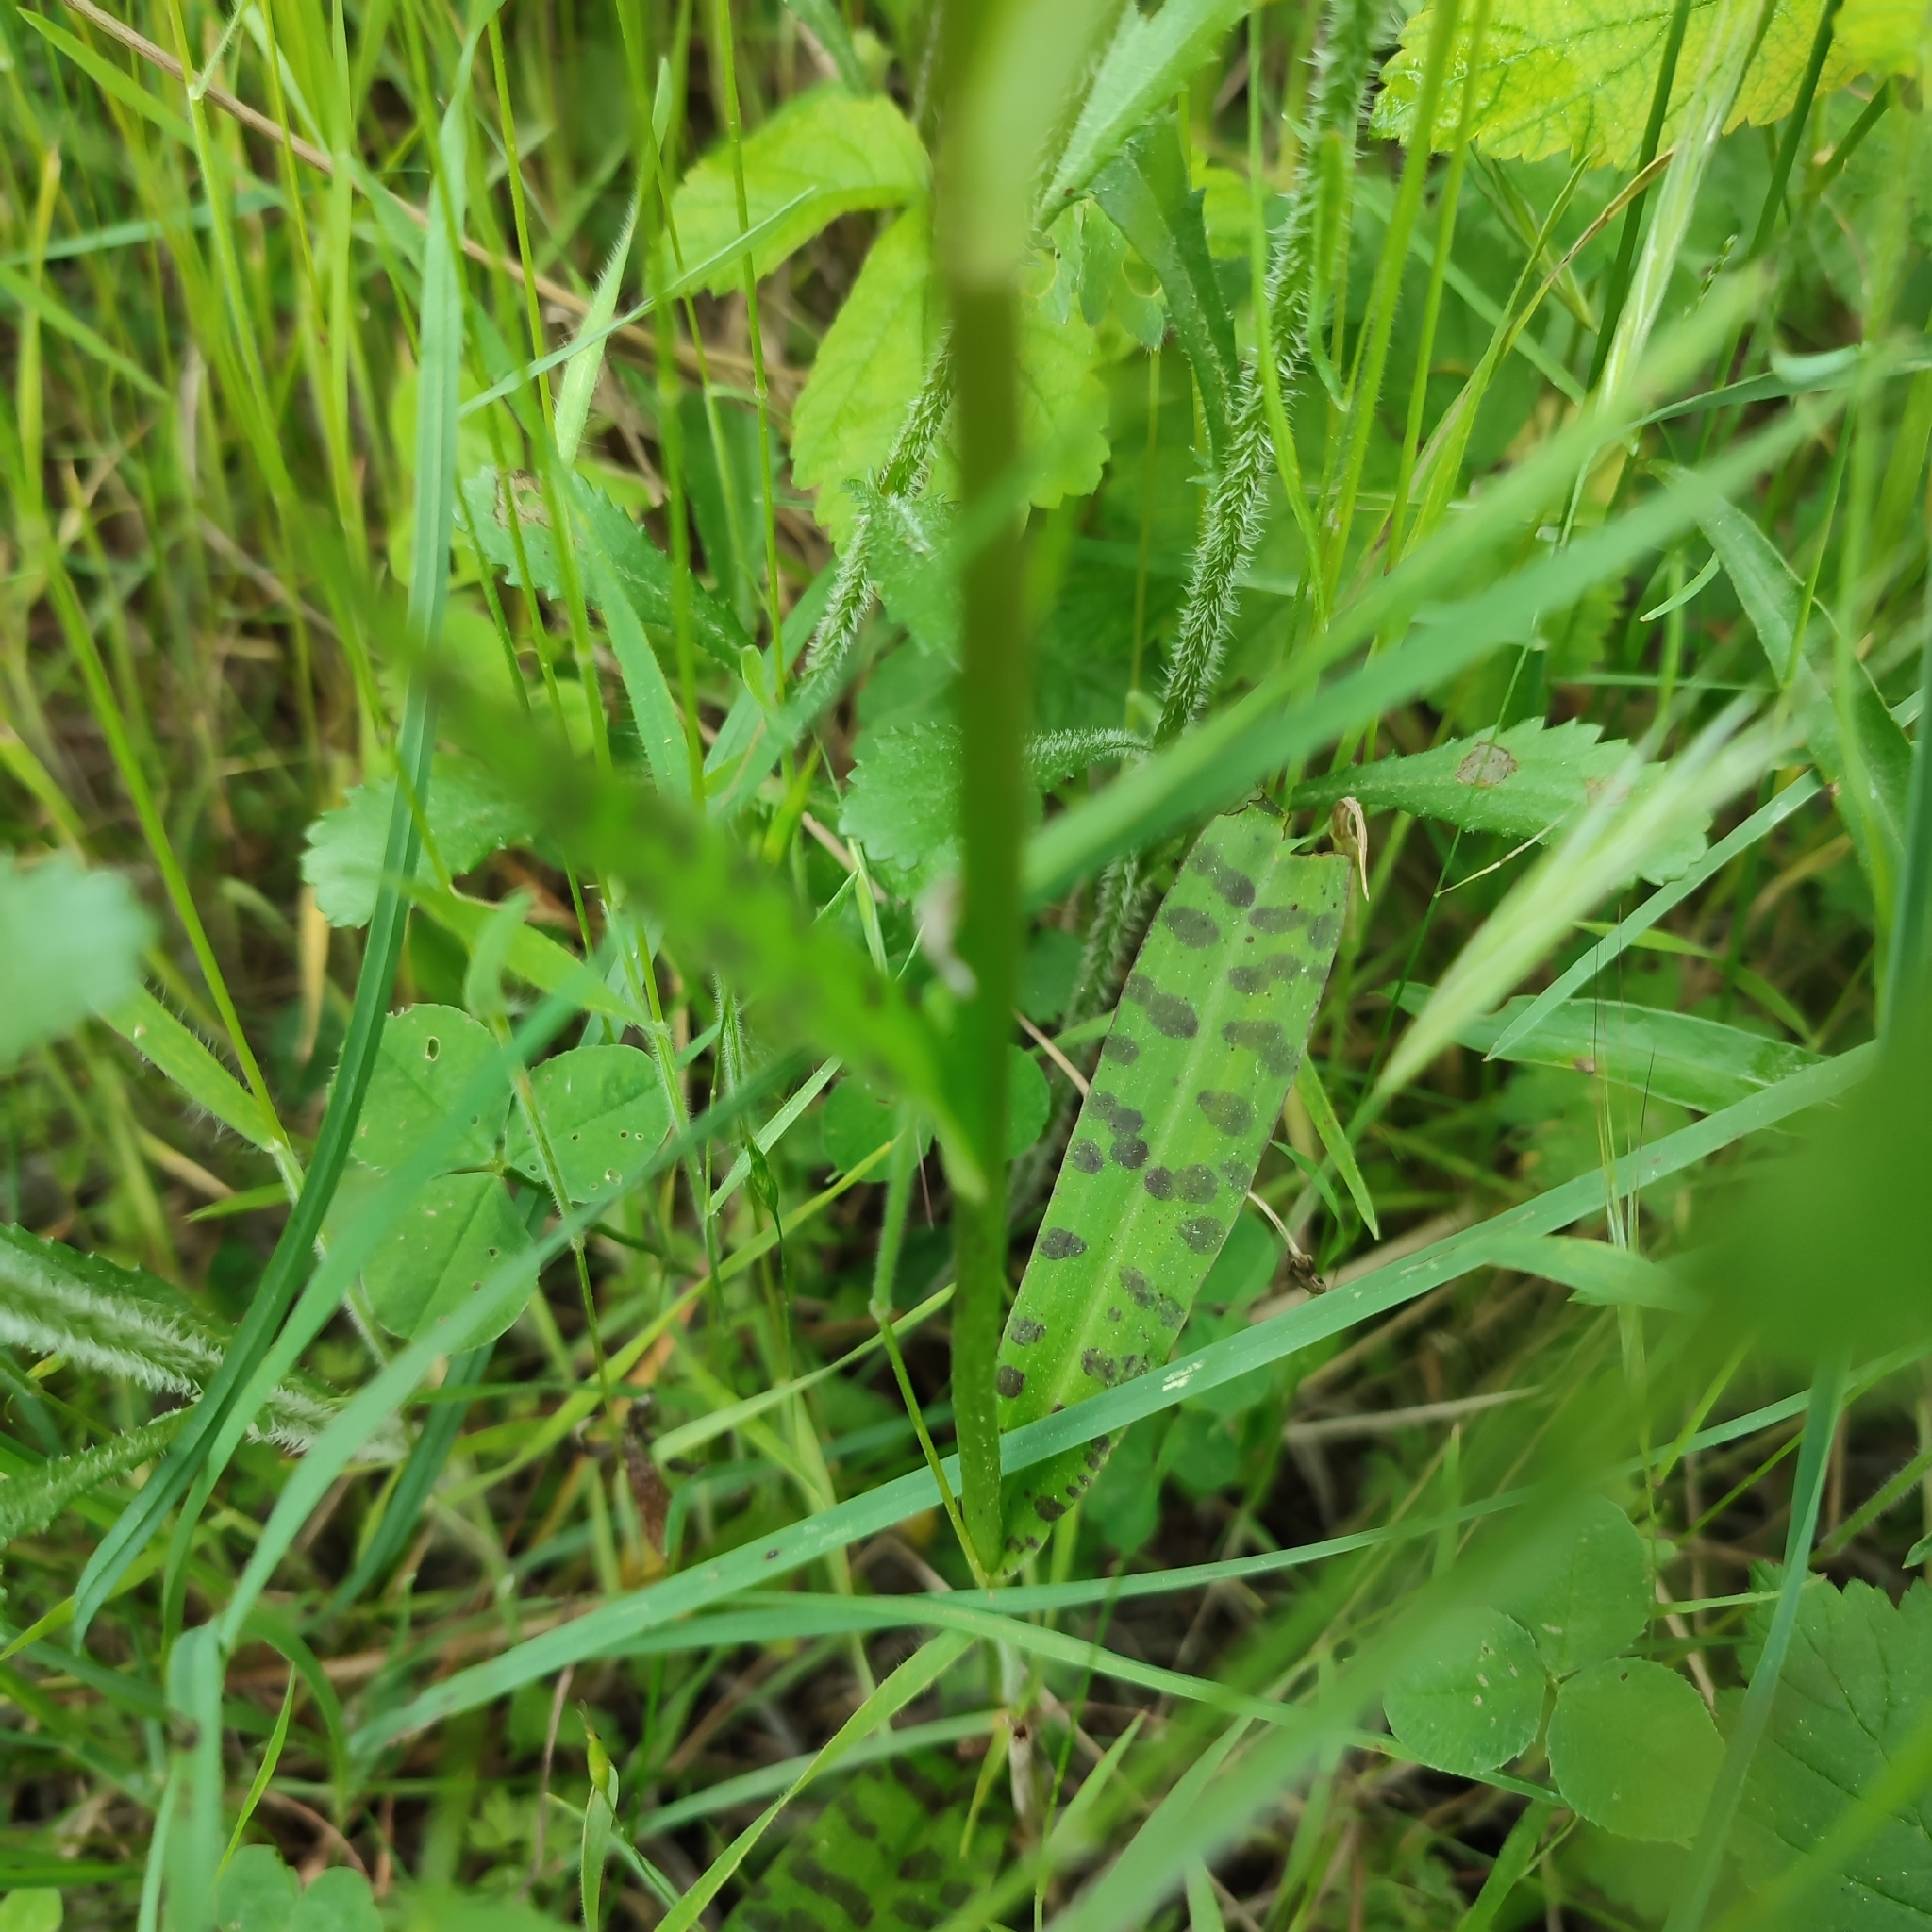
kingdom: Plantae
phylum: Tracheophyta
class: Liliopsida
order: Asparagales
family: Orchidaceae
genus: Dactylorhiza
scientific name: Dactylorhiza maculata
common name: Heath spotted-orchid
